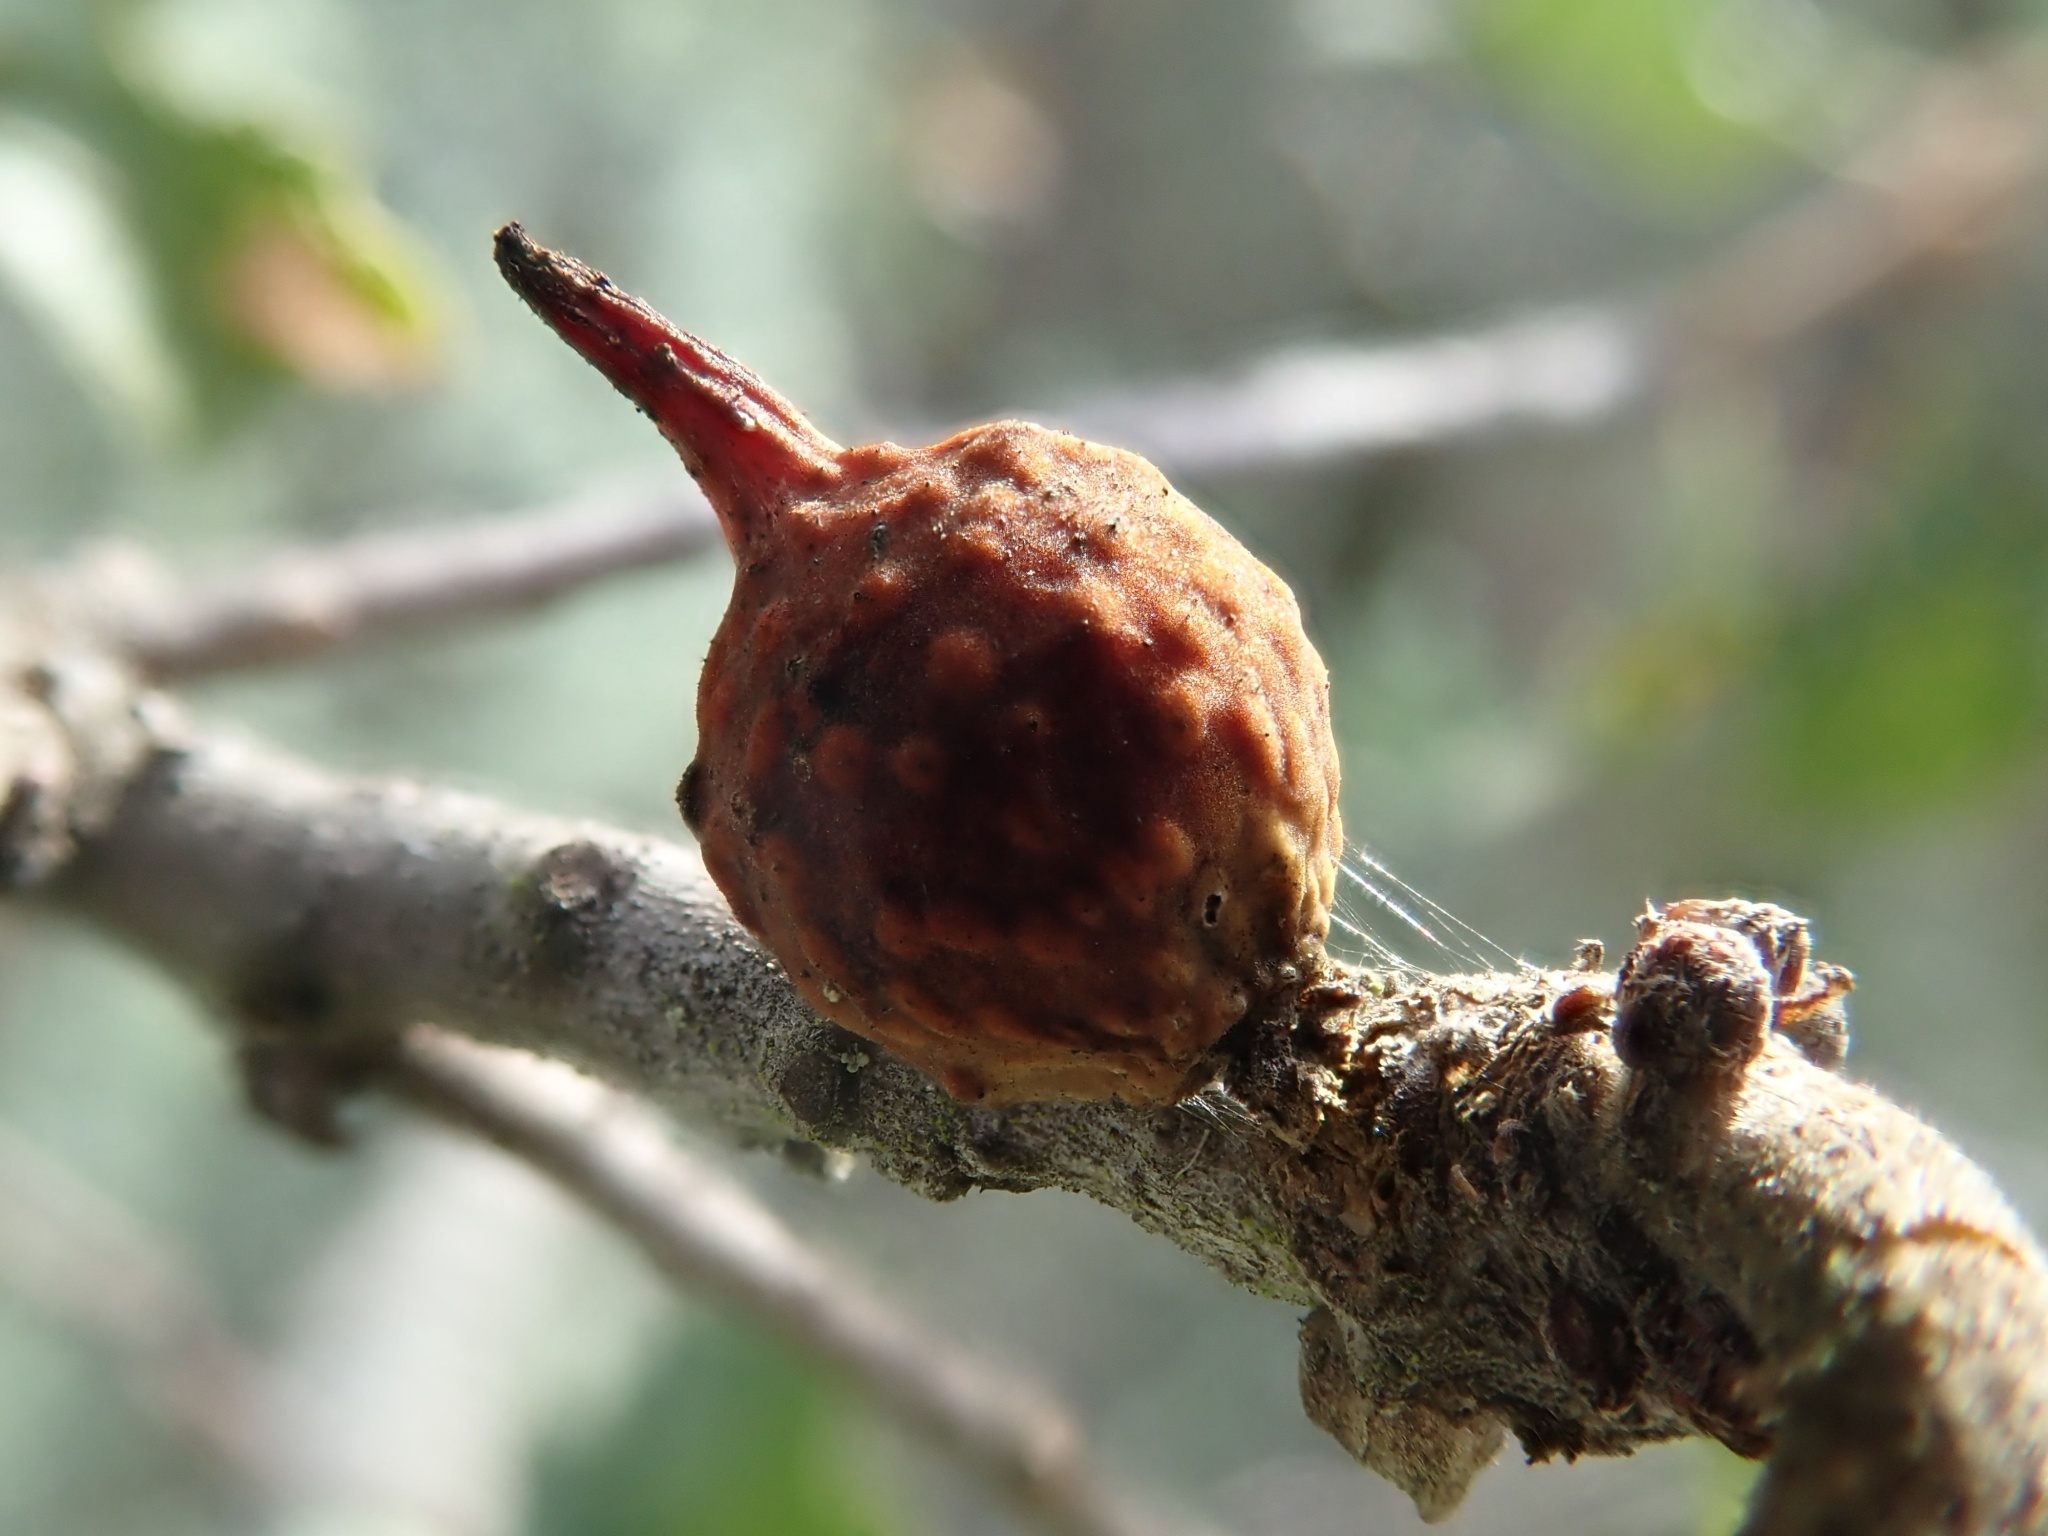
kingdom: Animalia
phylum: Arthropoda
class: Insecta
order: Hymenoptera
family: Cynipidae
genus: Burnettweldia
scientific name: Burnettweldia
